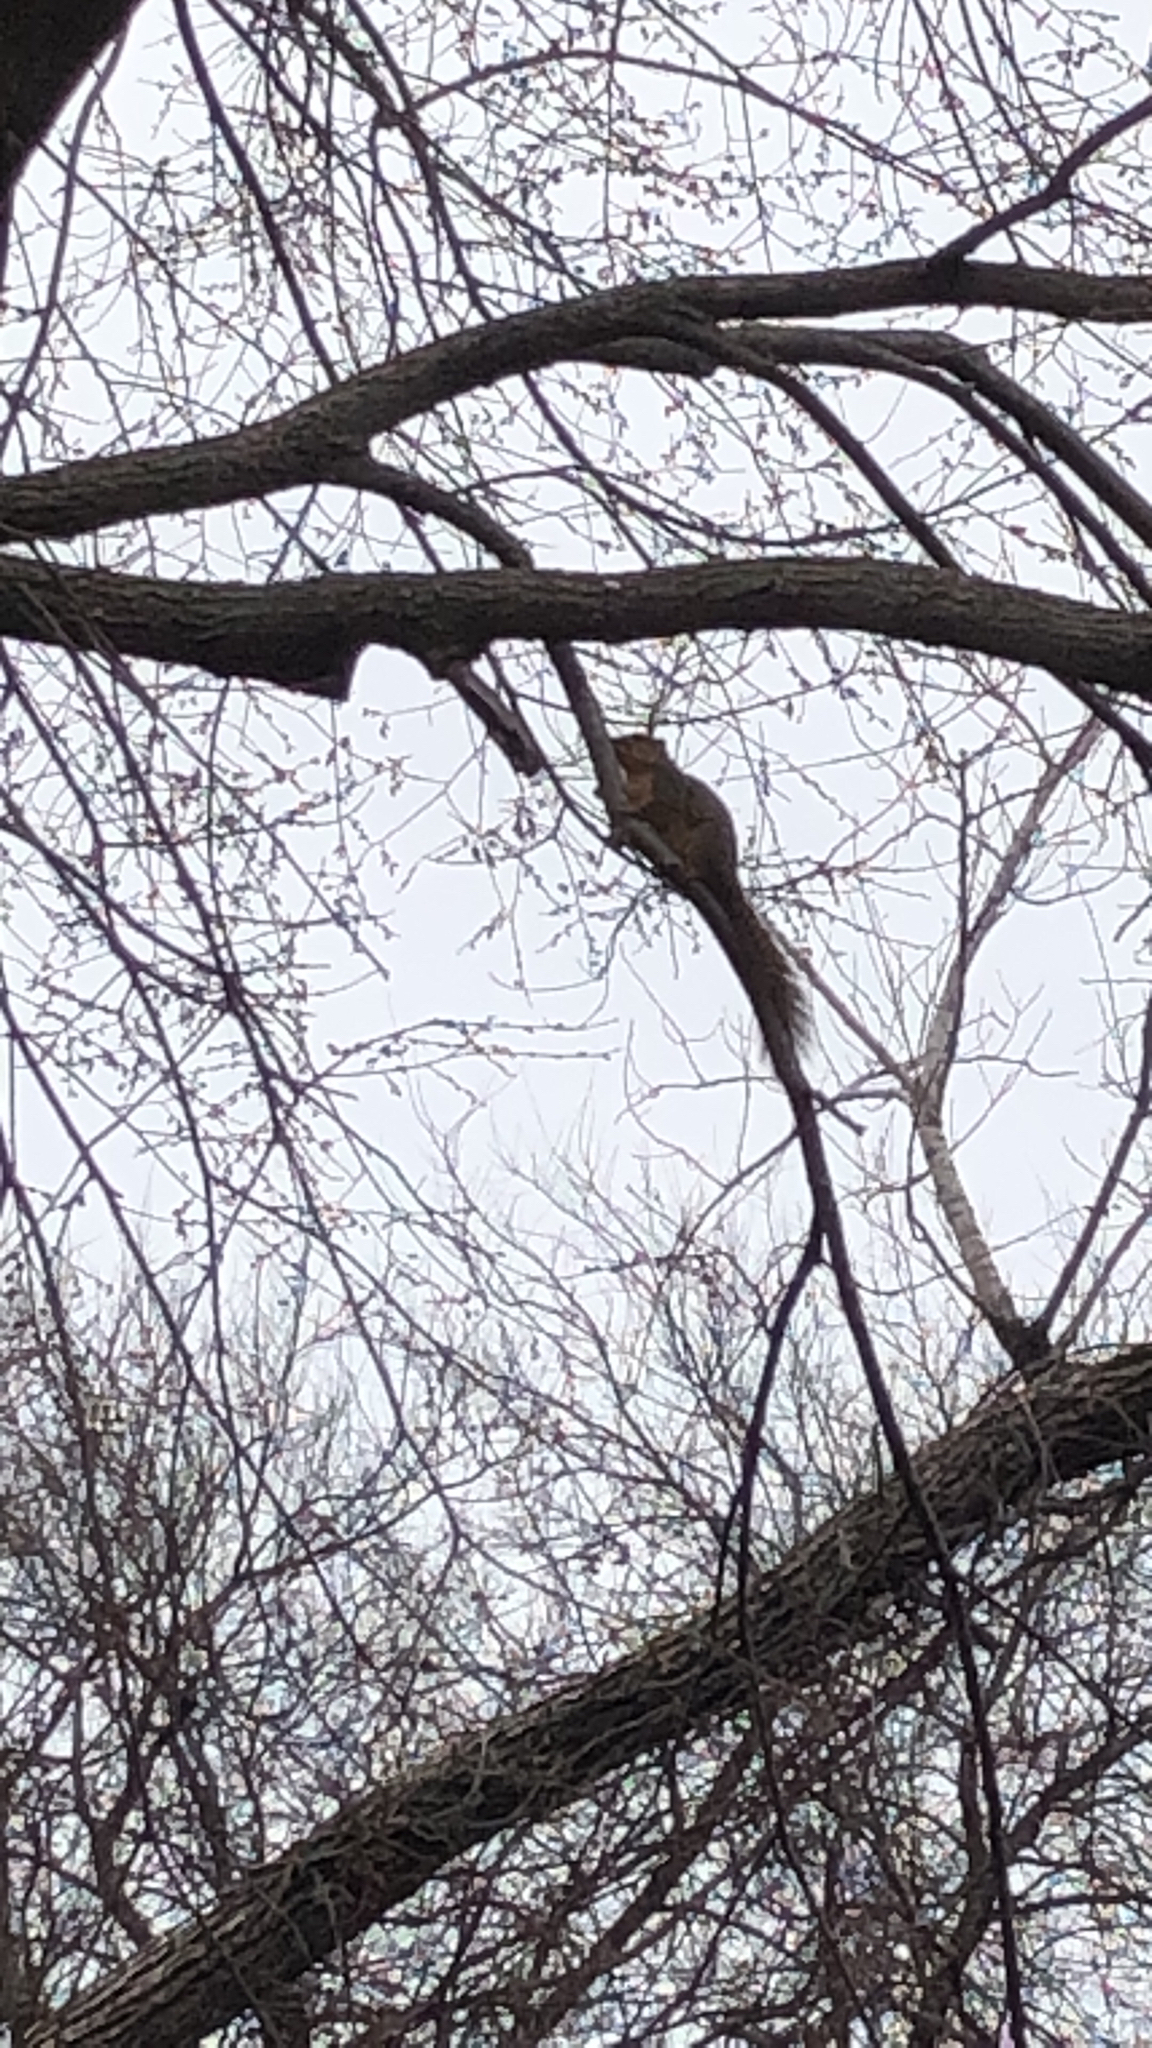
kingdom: Animalia
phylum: Chordata
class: Mammalia
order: Rodentia
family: Sciuridae
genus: Sciurus
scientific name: Sciurus niger
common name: Fox squirrel
